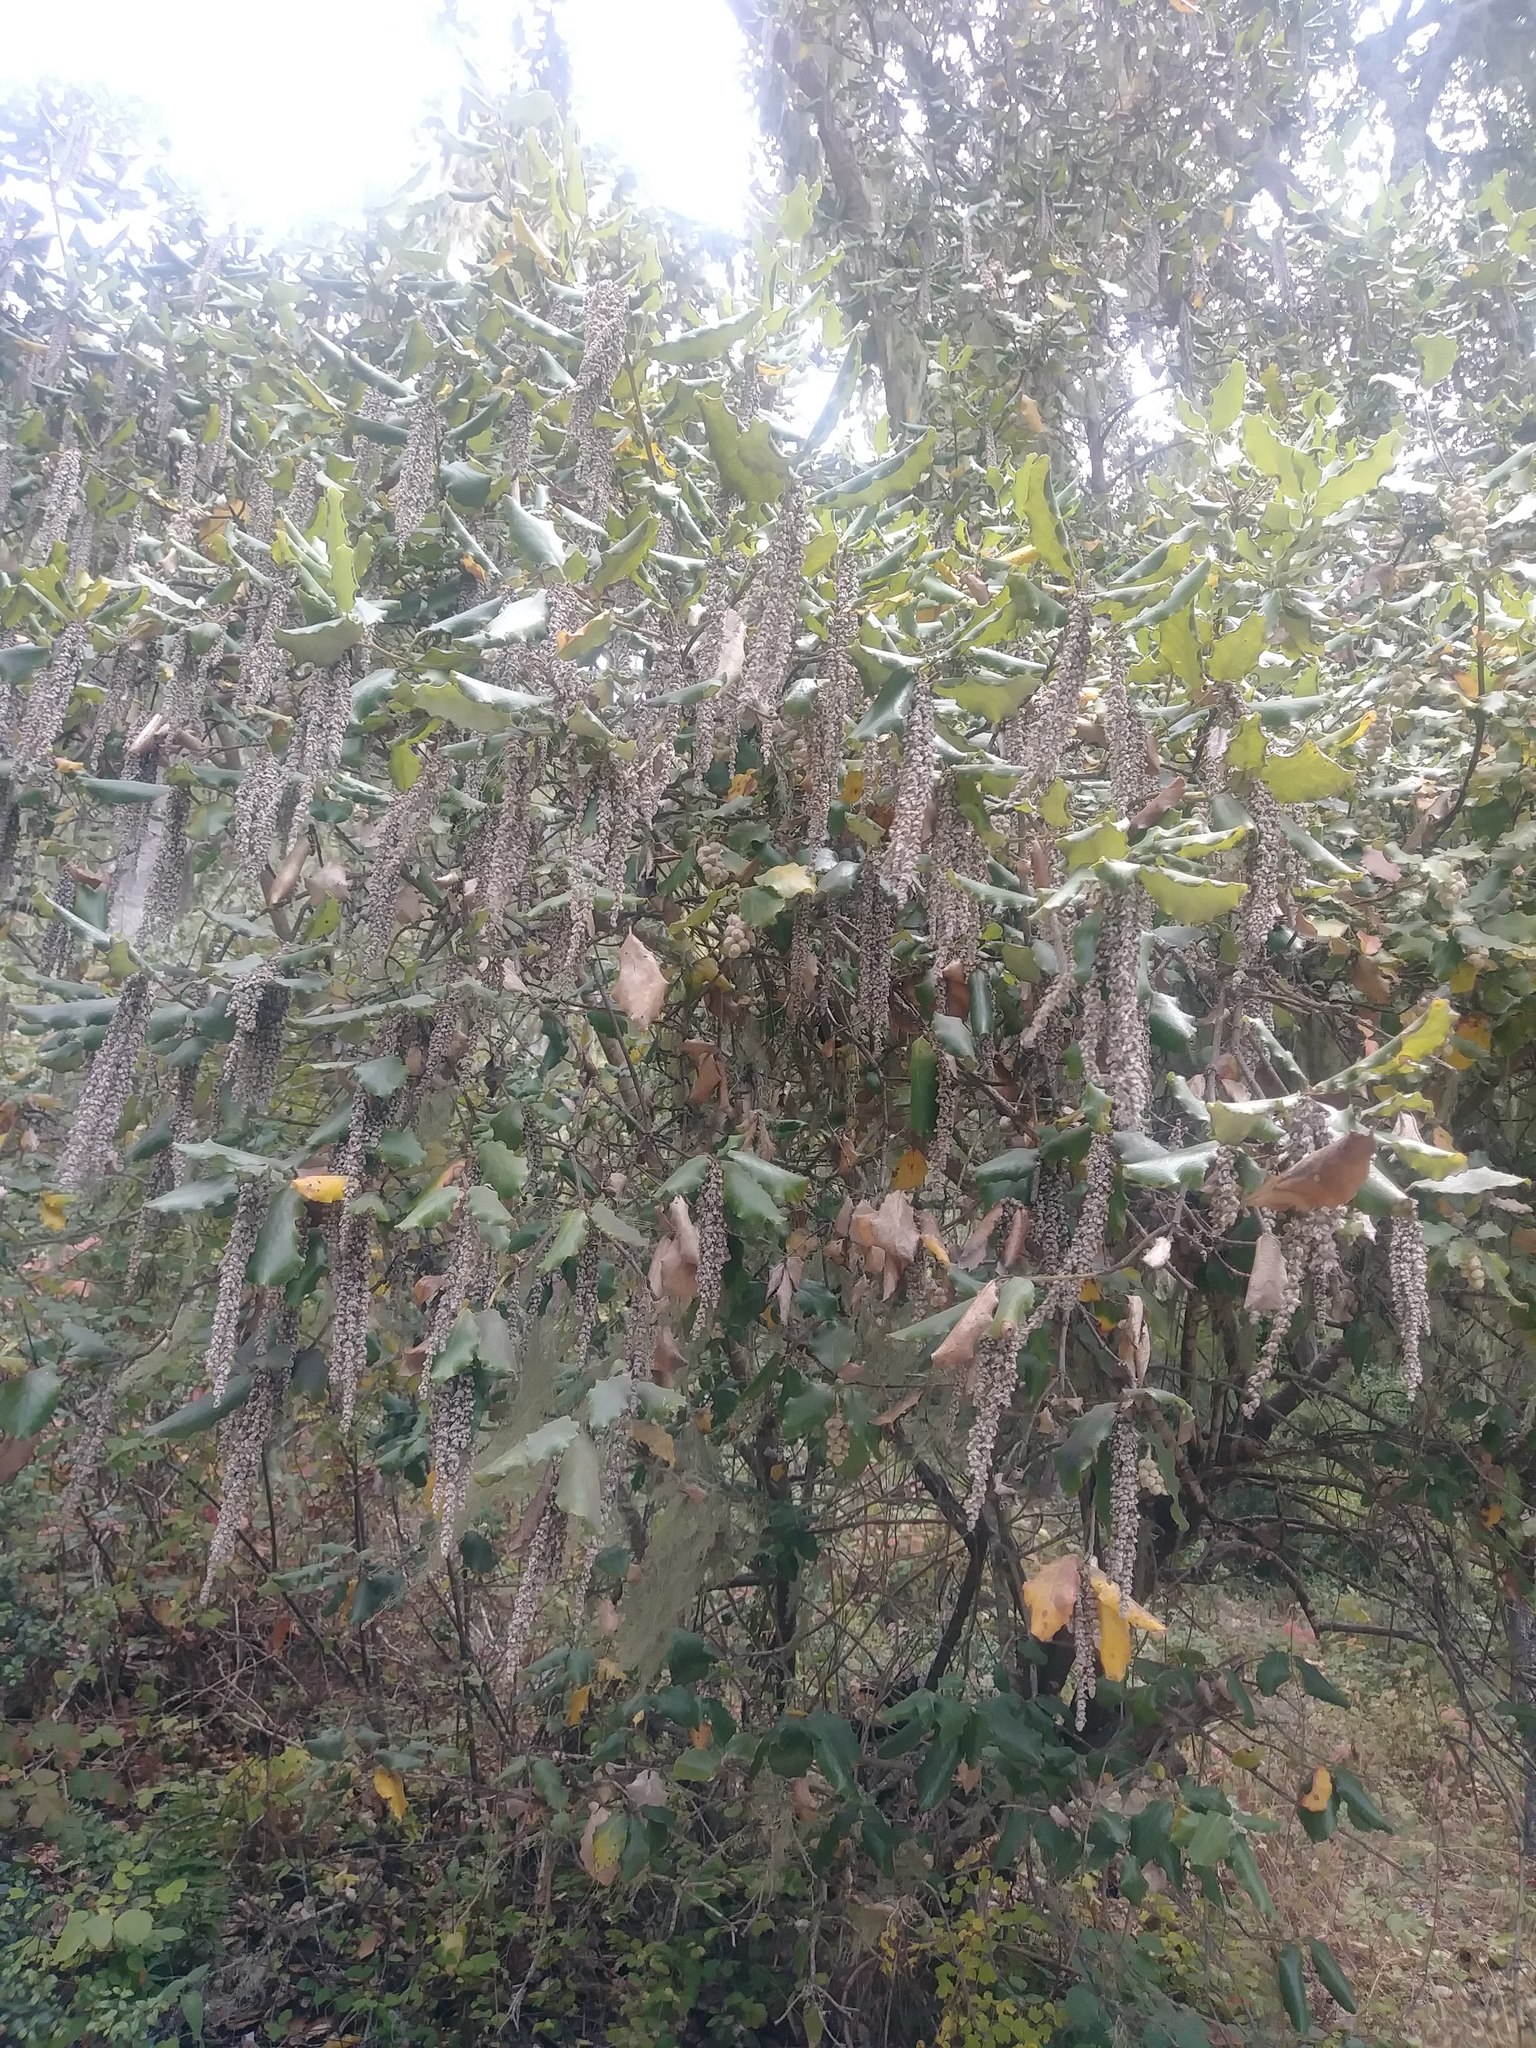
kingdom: Plantae
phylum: Tracheophyta
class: Magnoliopsida
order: Garryales
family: Garryaceae
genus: Garrya
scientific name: Garrya elliptica
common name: Silk-tassel
